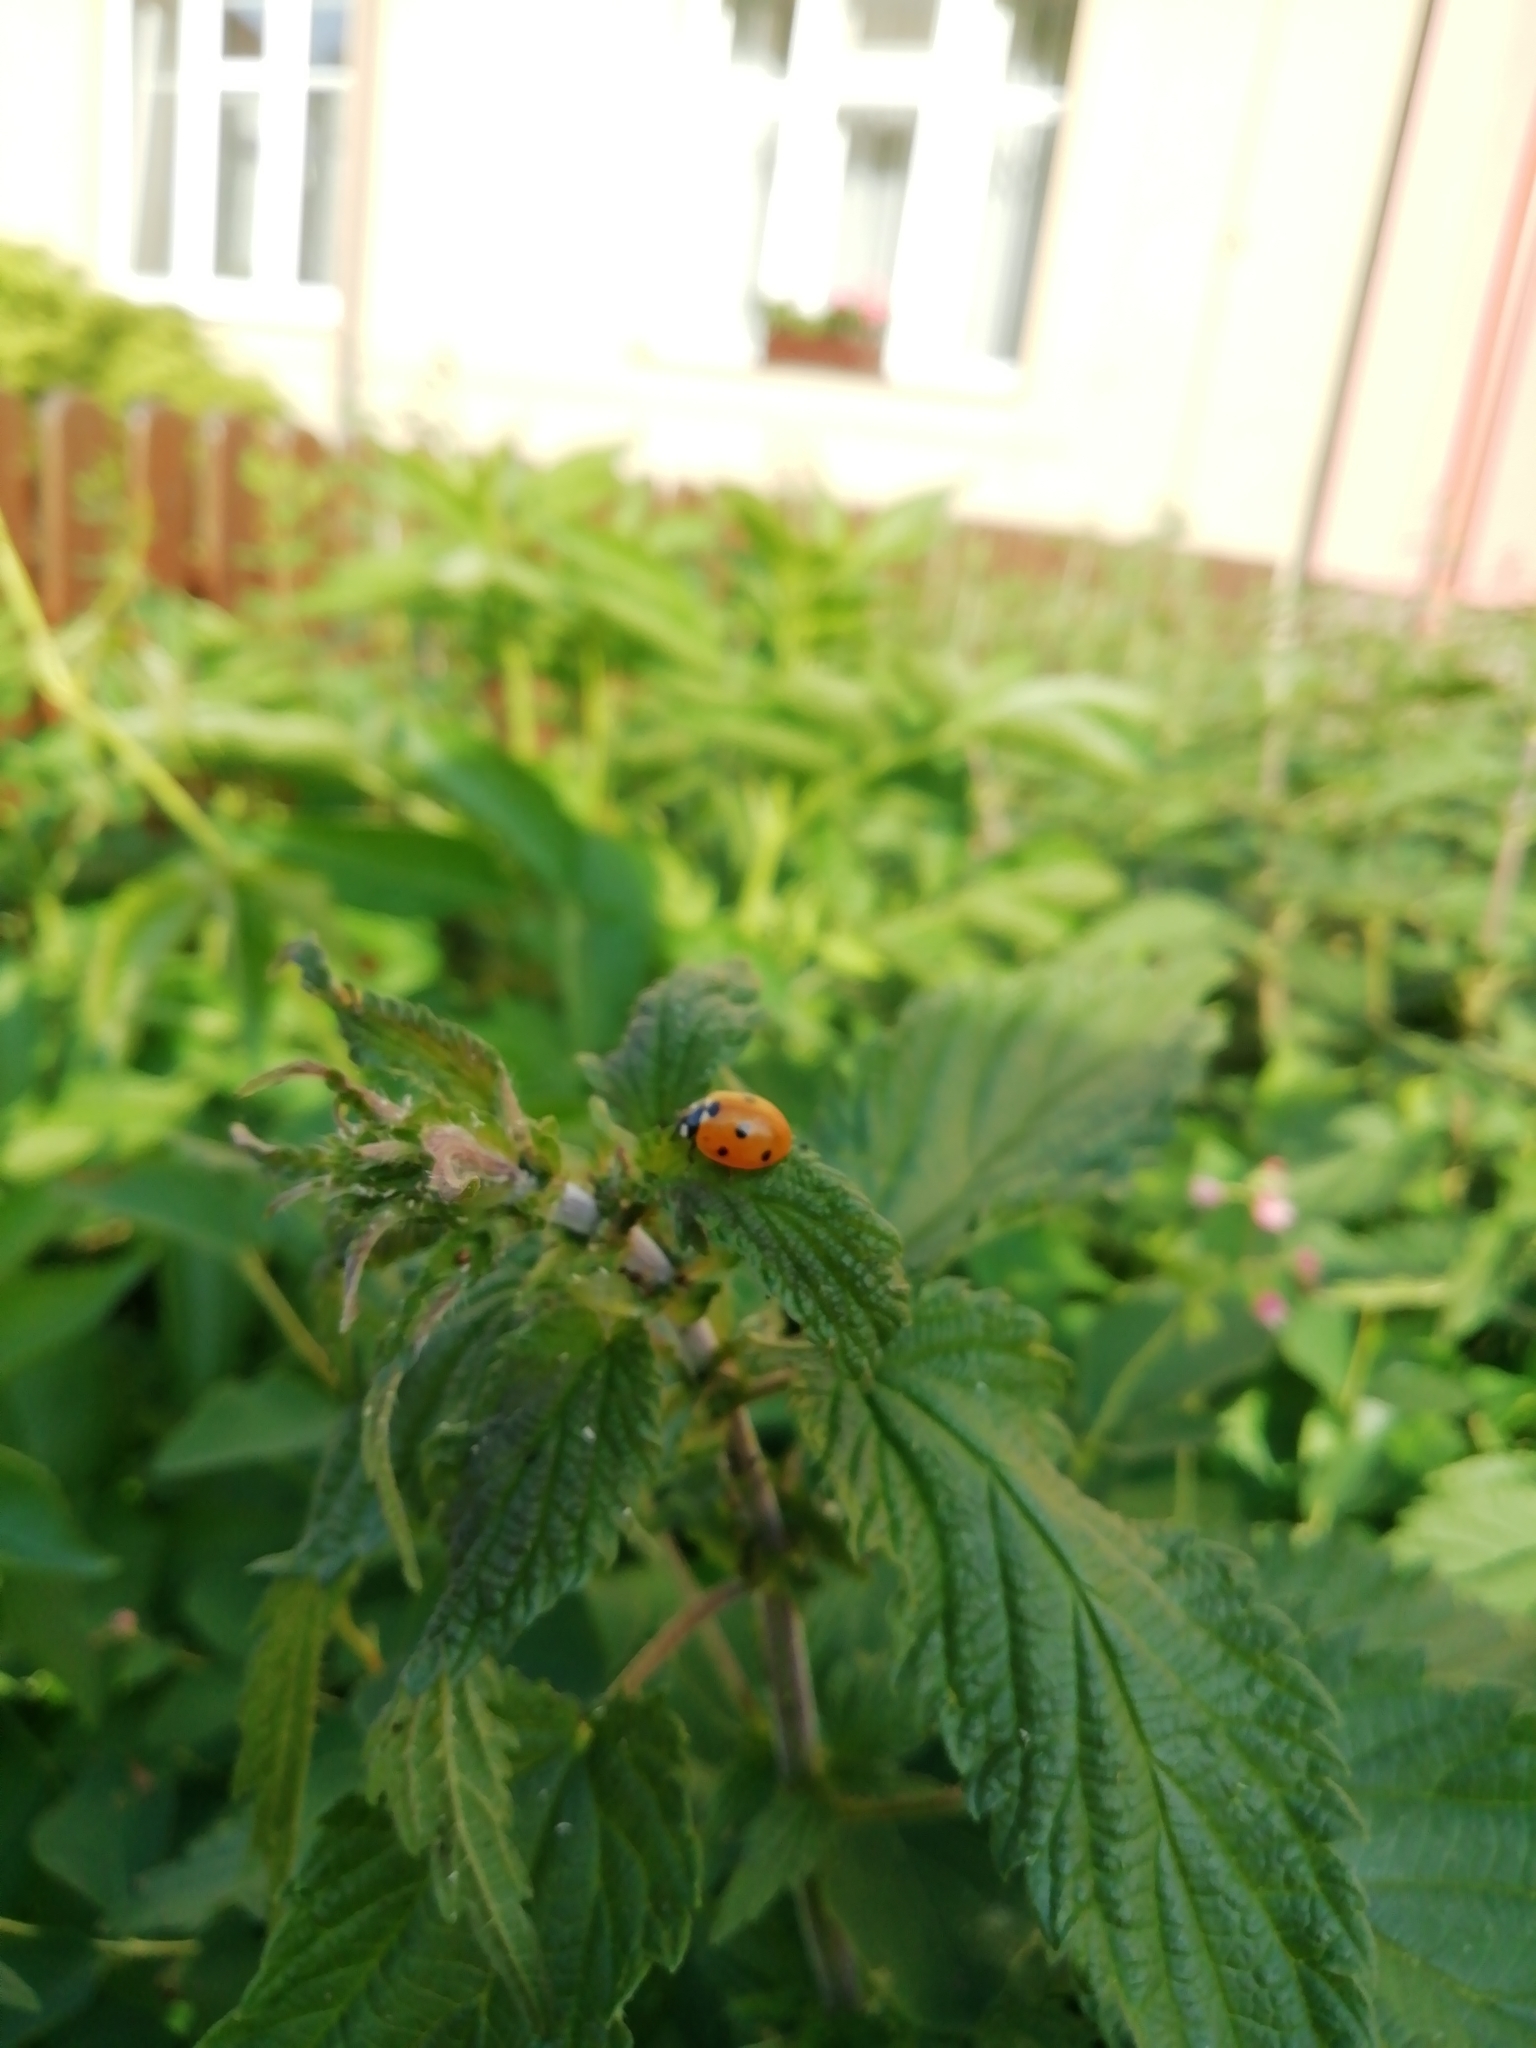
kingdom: Animalia
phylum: Arthropoda
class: Insecta
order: Coleoptera
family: Coccinellidae
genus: Coccinella
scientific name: Coccinella septempunctata
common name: Sevenspotted lady beetle
